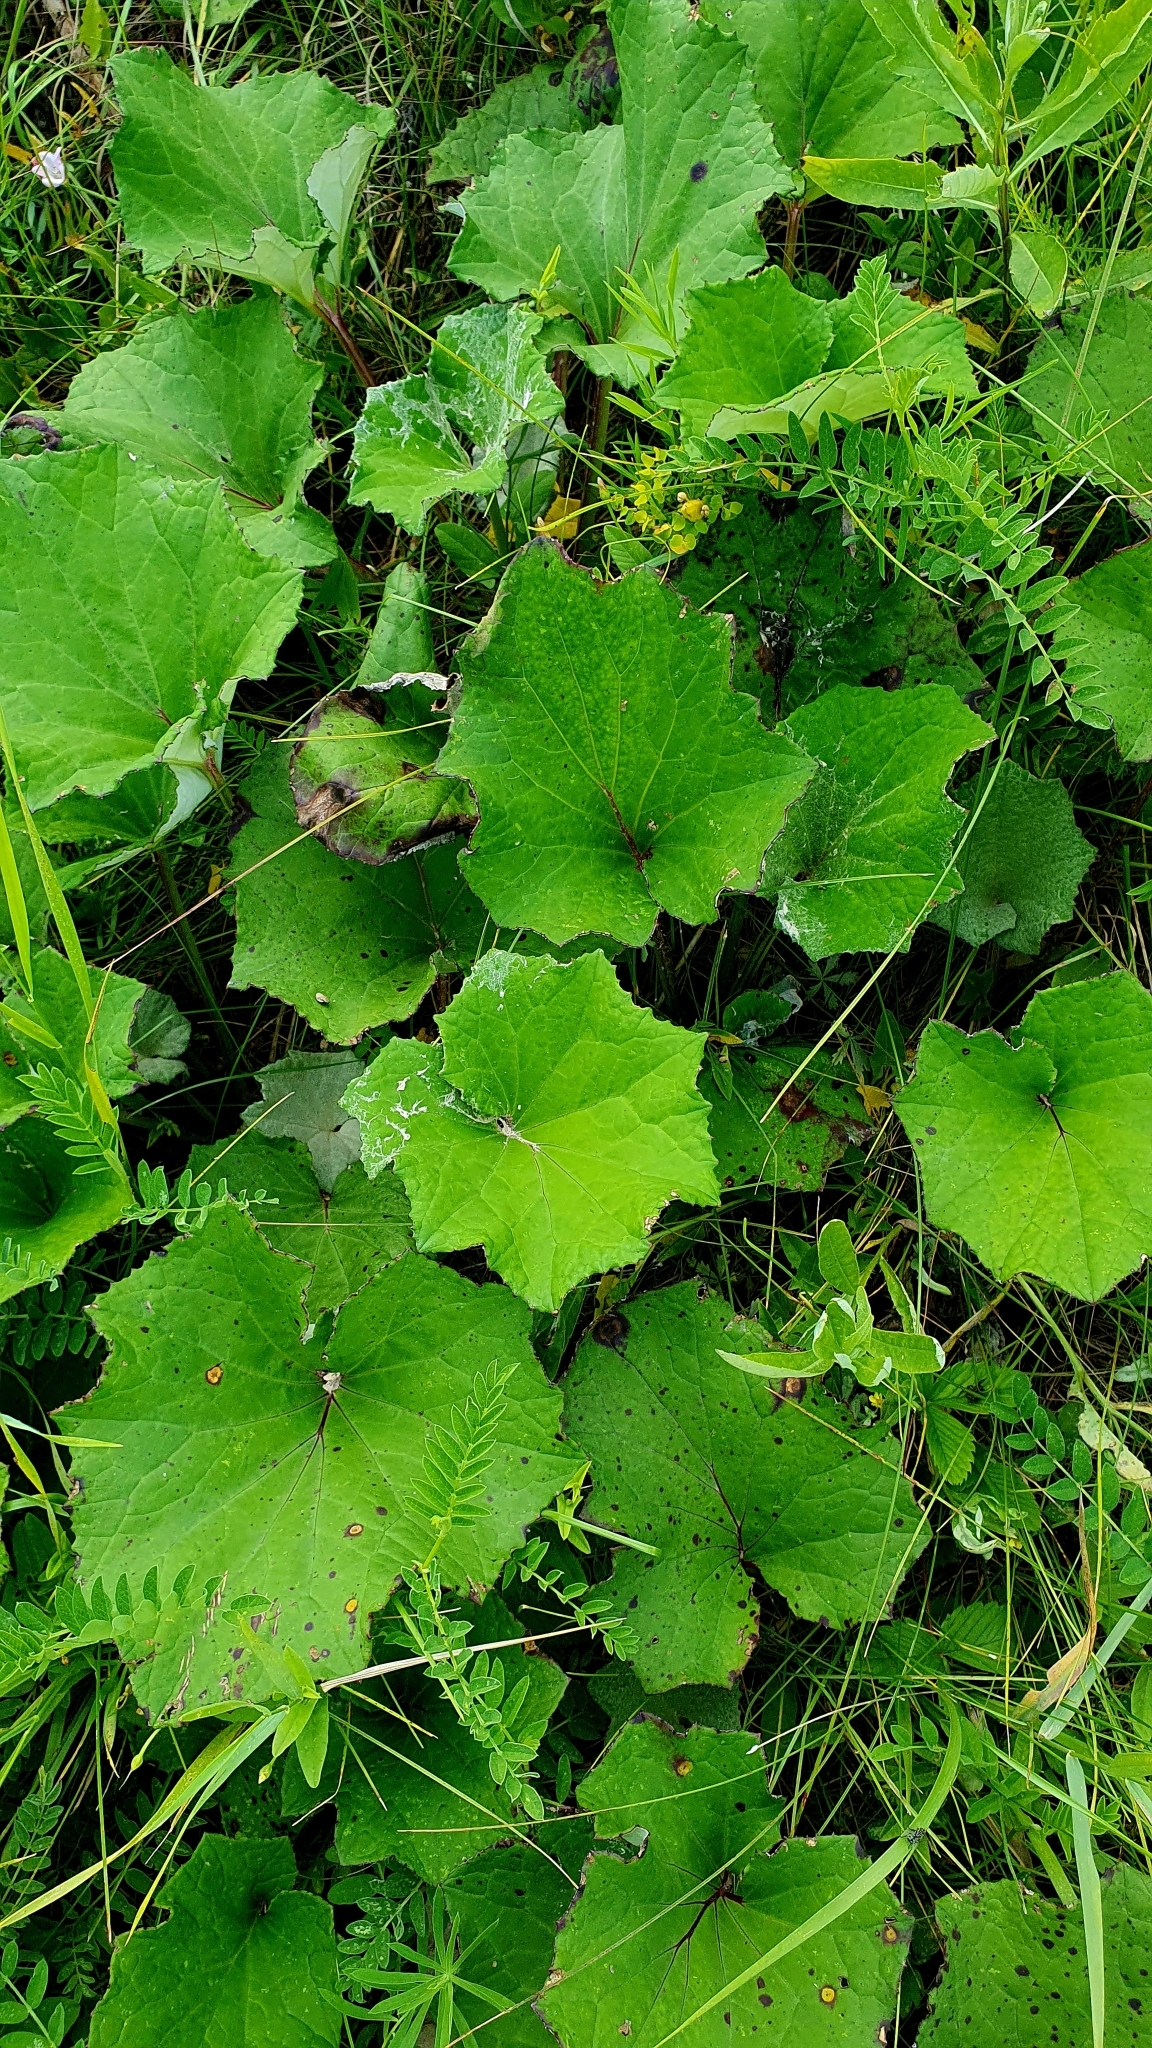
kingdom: Plantae
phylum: Tracheophyta
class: Magnoliopsida
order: Asterales
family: Asteraceae
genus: Tussilago
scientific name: Tussilago farfara
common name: Coltsfoot
